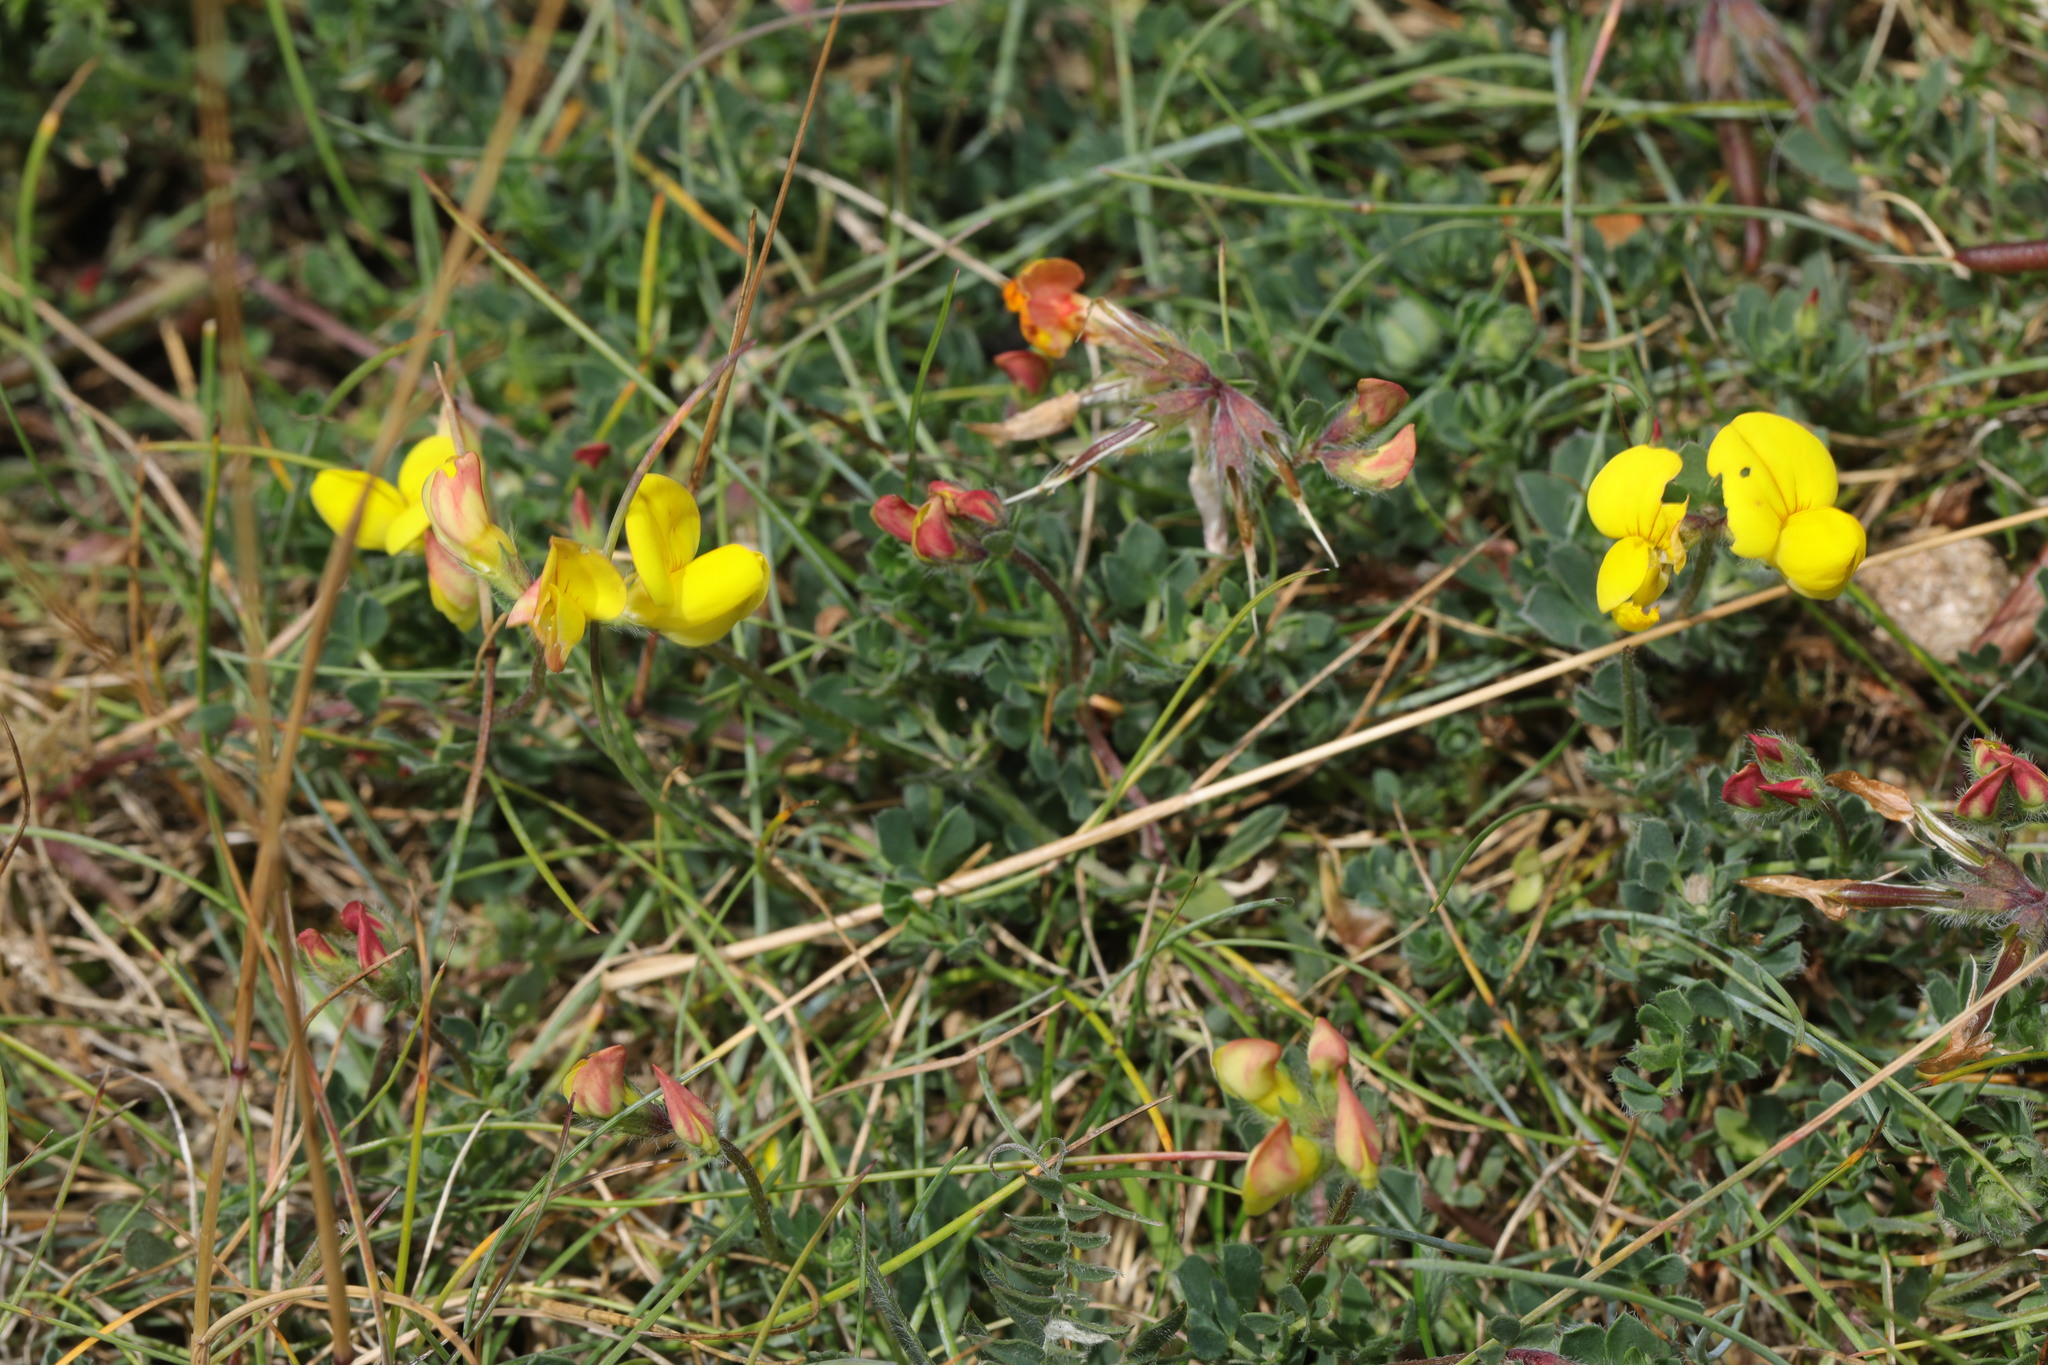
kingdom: Plantae
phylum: Tracheophyta
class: Magnoliopsida
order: Fabales
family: Fabaceae
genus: Lotus
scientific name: Lotus corniculatus
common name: Common bird's-foot-trefoil
